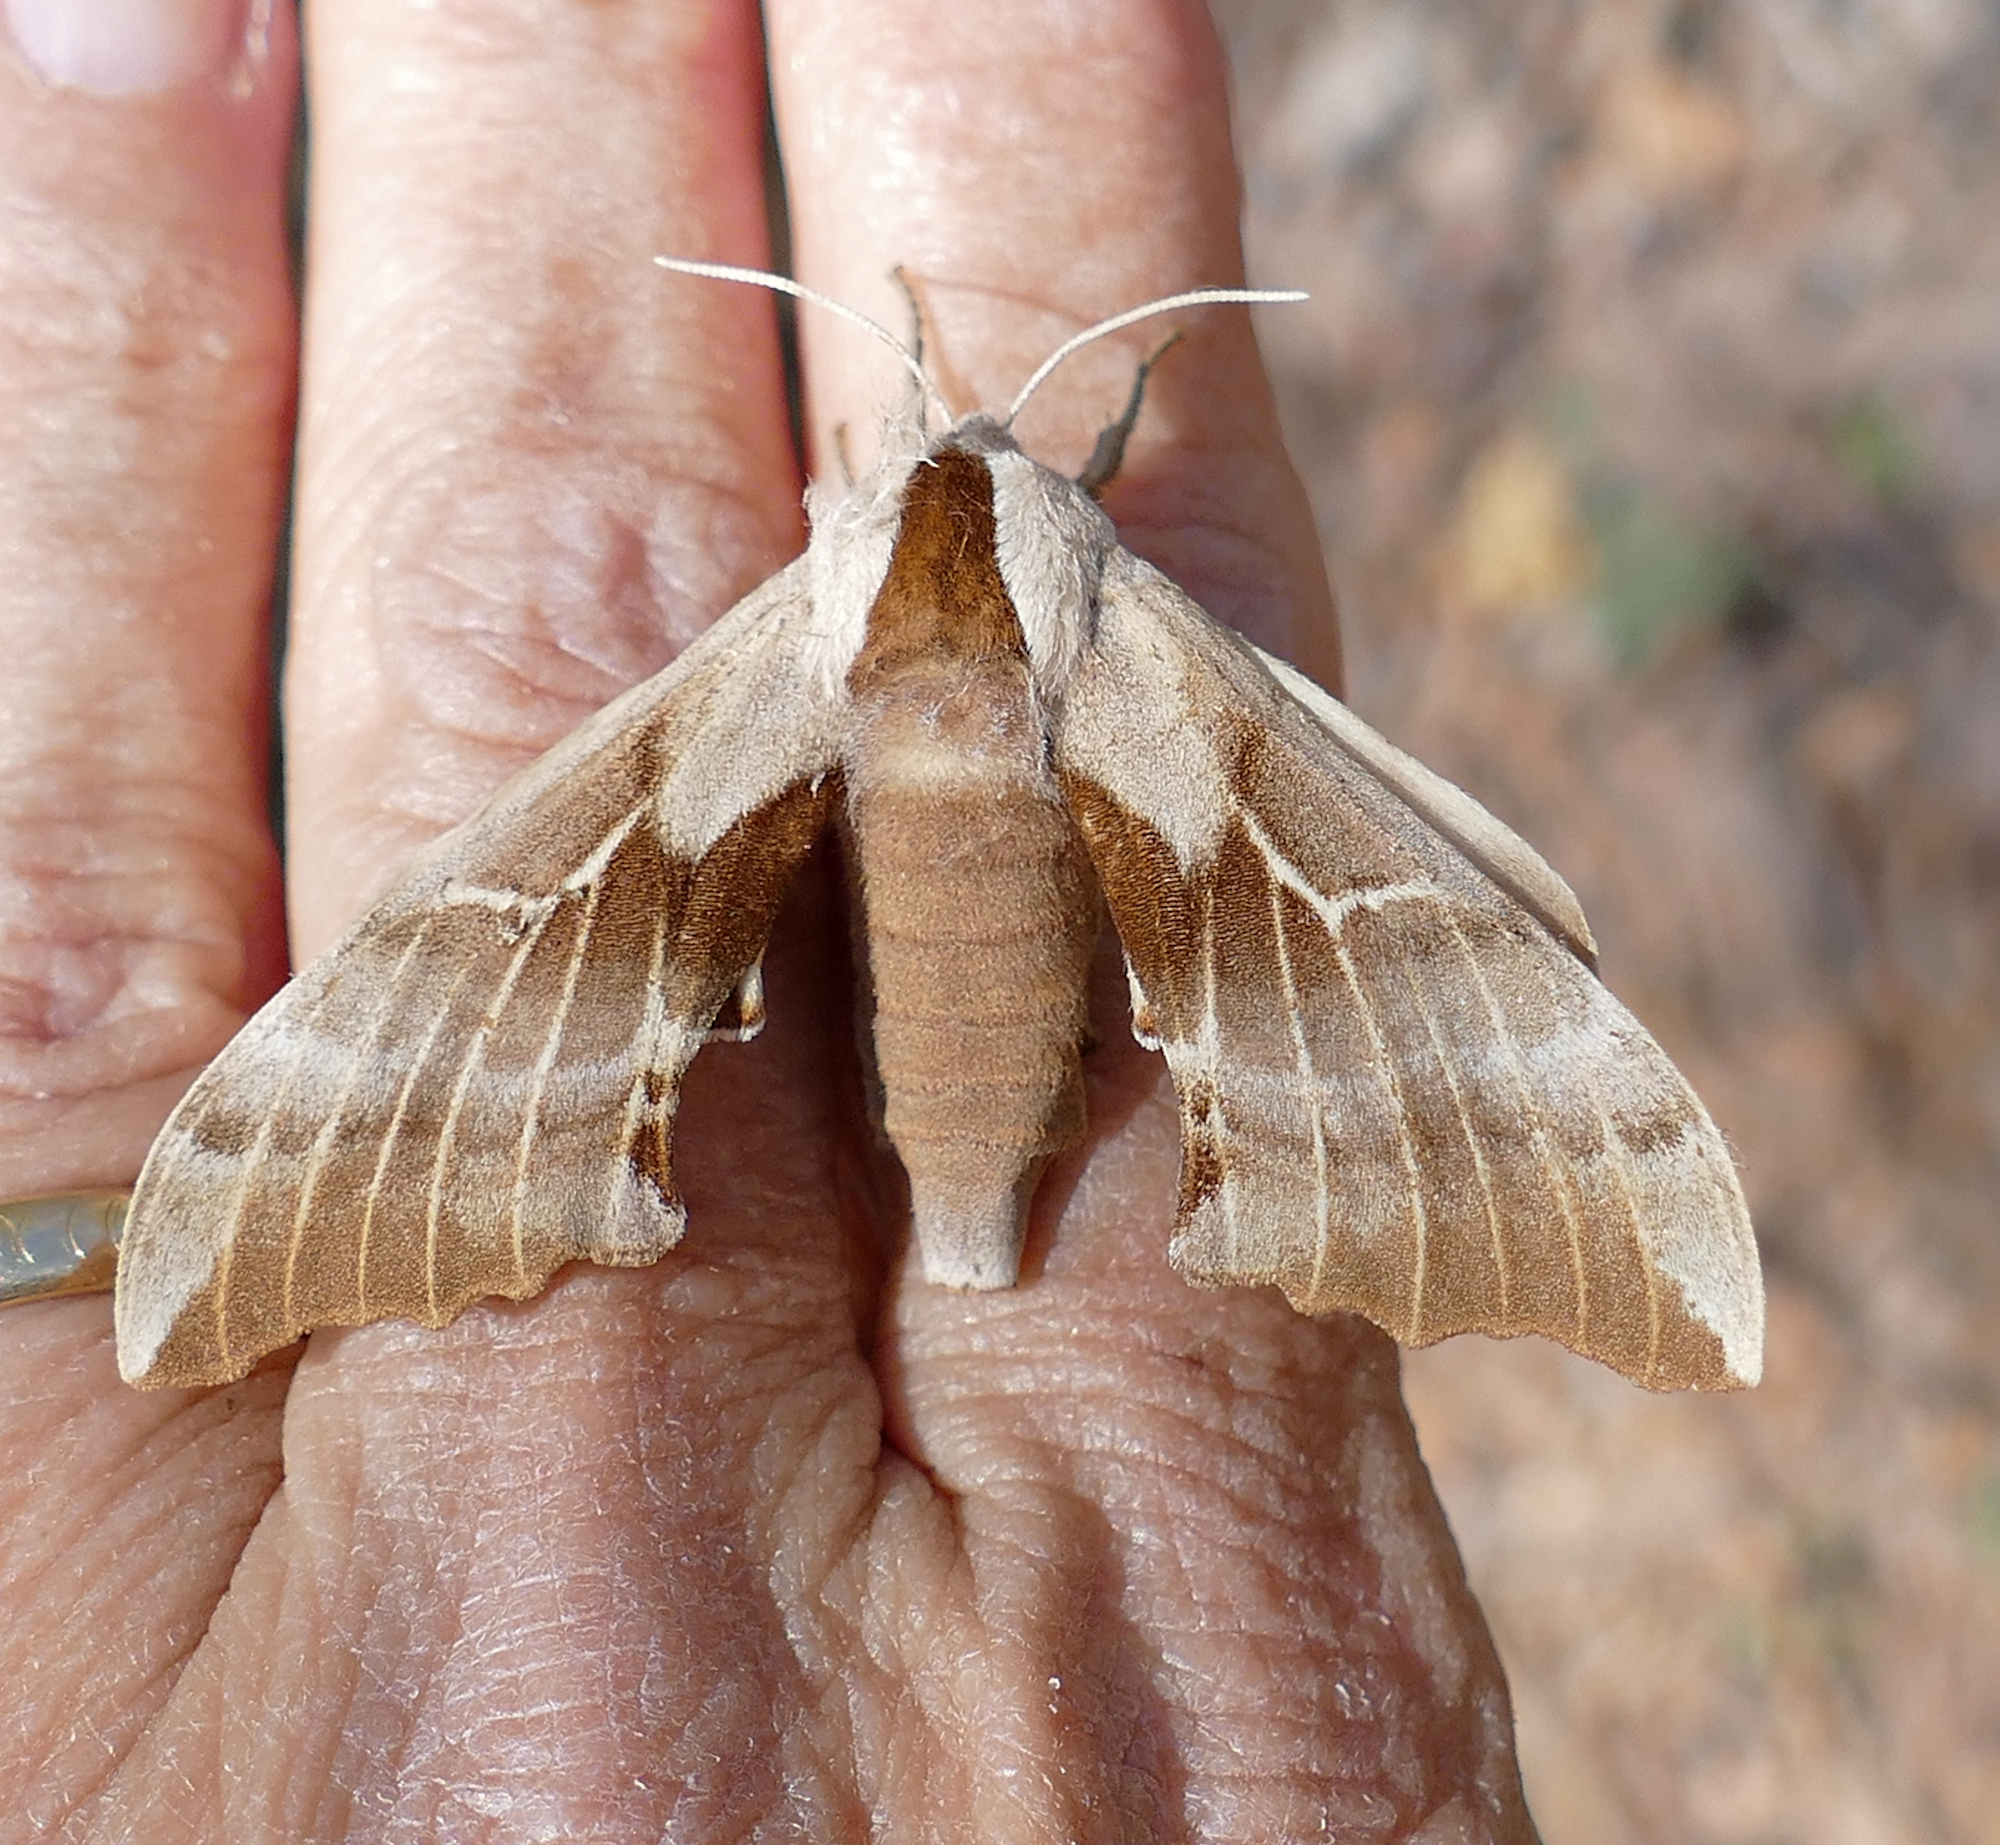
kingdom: Animalia
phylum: Arthropoda
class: Insecta
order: Lepidoptera
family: Sphingidae
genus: Smerinthus
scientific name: Smerinthus cerisyi
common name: Cerisy's sphinx moth
